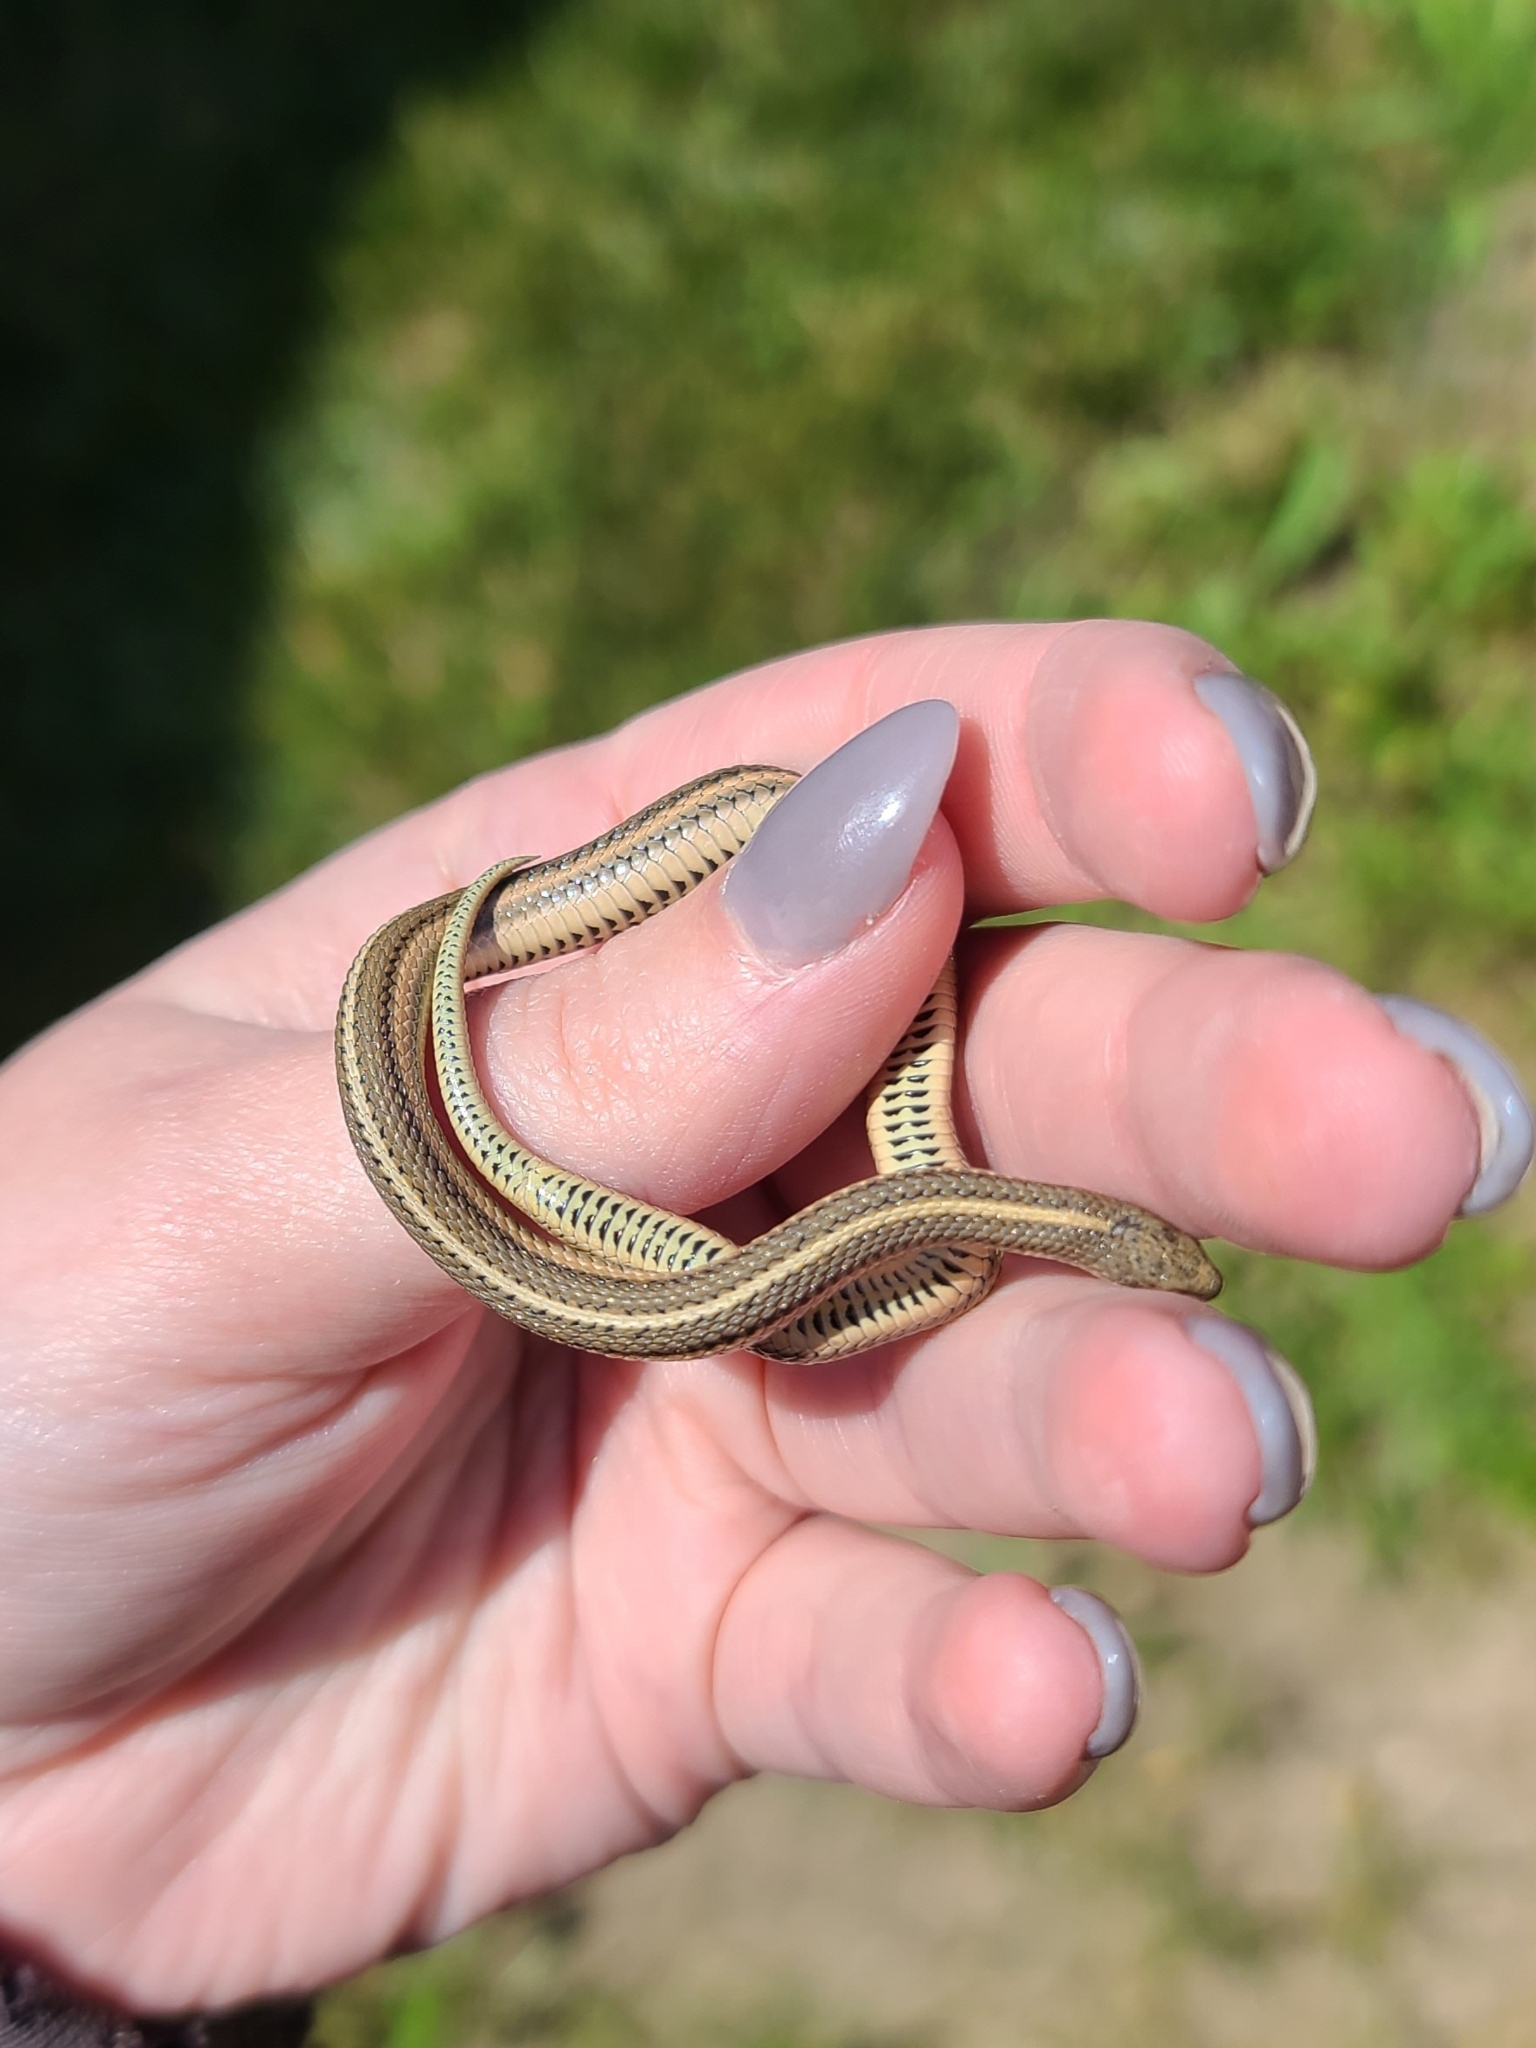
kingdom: Animalia
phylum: Chordata
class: Squamata
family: Colubridae
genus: Tropidoclonion
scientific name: Tropidoclonion lineatum
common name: Lined snake
